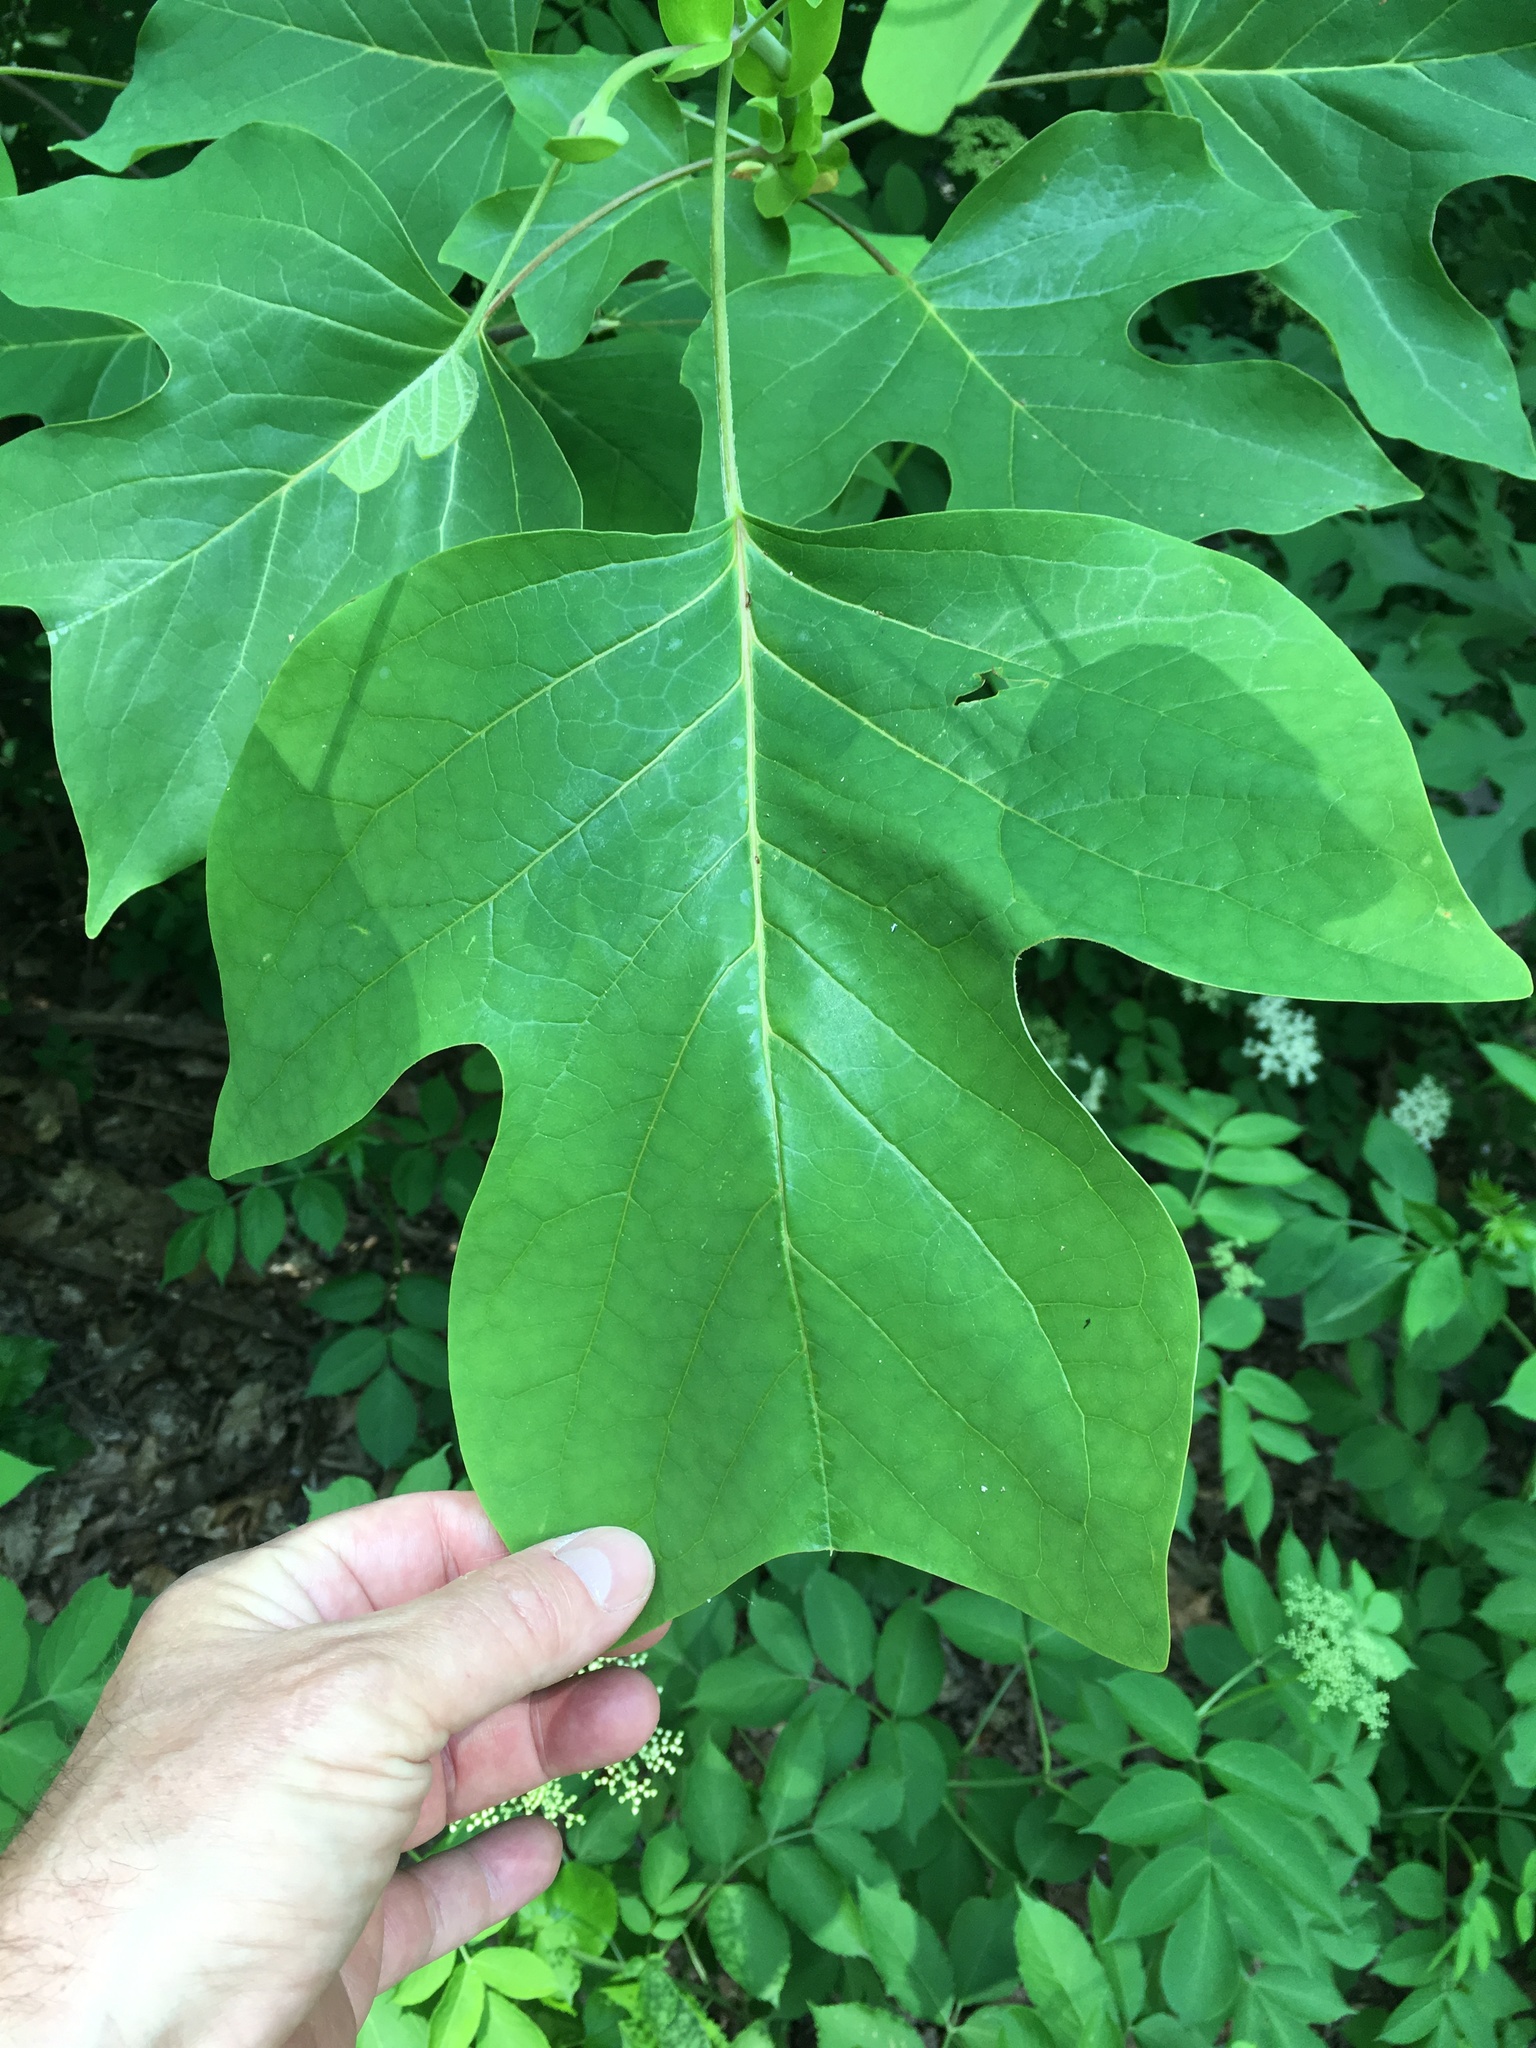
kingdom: Plantae
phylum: Tracheophyta
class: Magnoliopsida
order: Magnoliales
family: Magnoliaceae
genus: Liriodendron
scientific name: Liriodendron tulipifera
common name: Tulip tree
